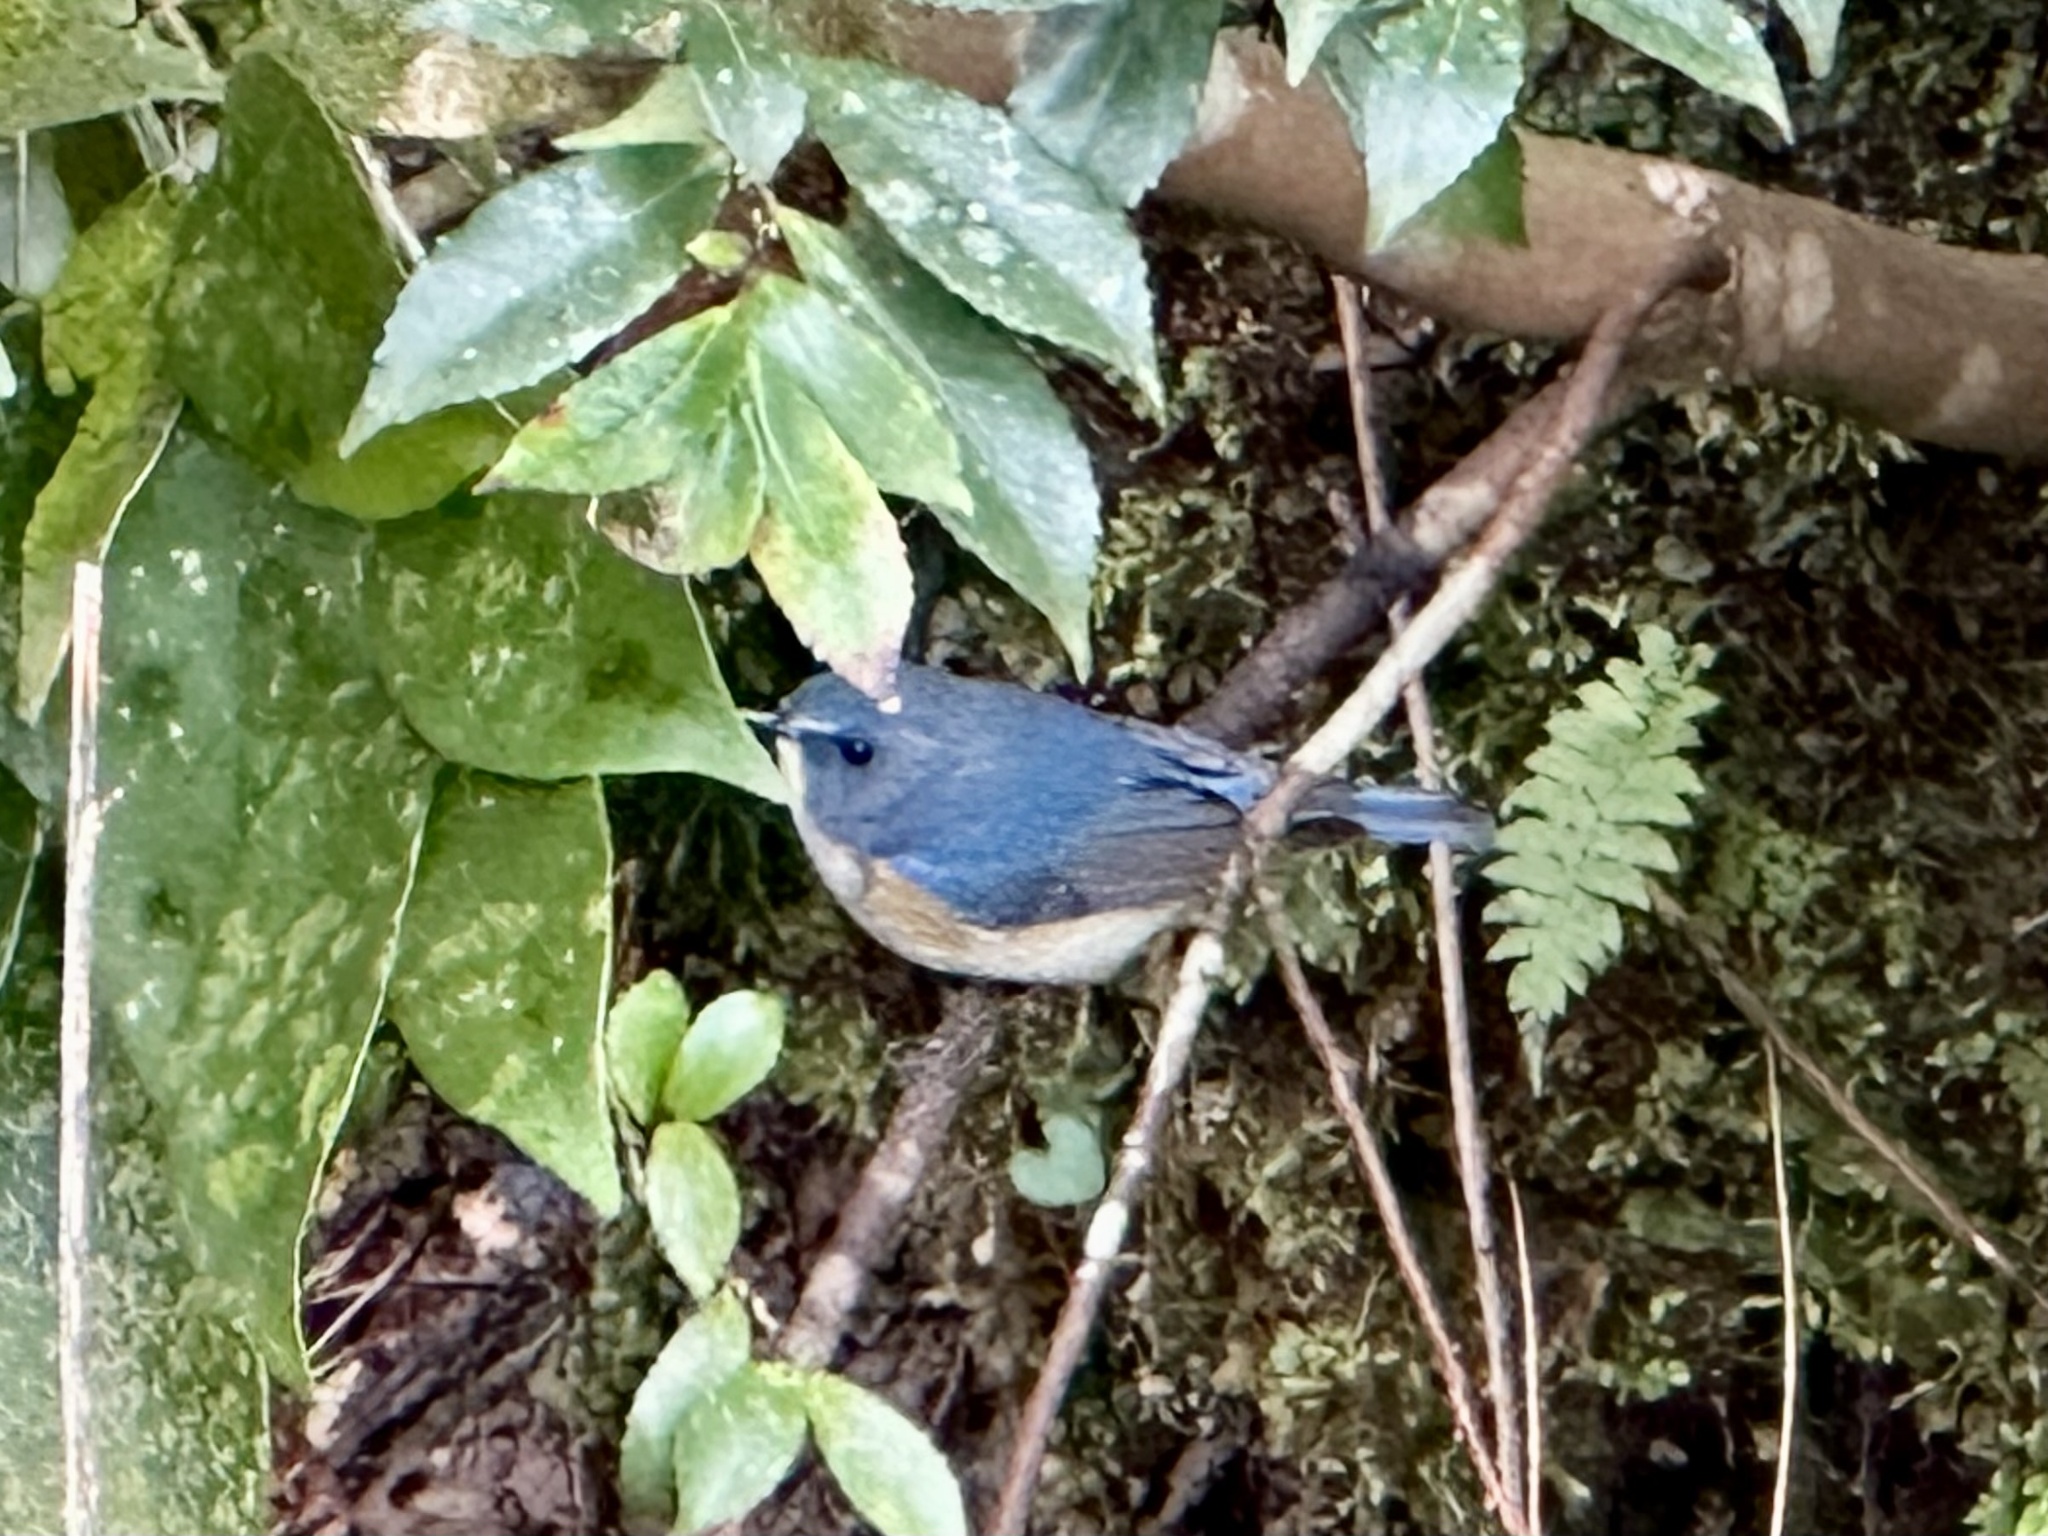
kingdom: Animalia
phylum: Chordata
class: Aves
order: Passeriformes
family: Muscicapidae
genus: Tarsiger
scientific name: Tarsiger cyanurus
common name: Red-flanked bluetail
